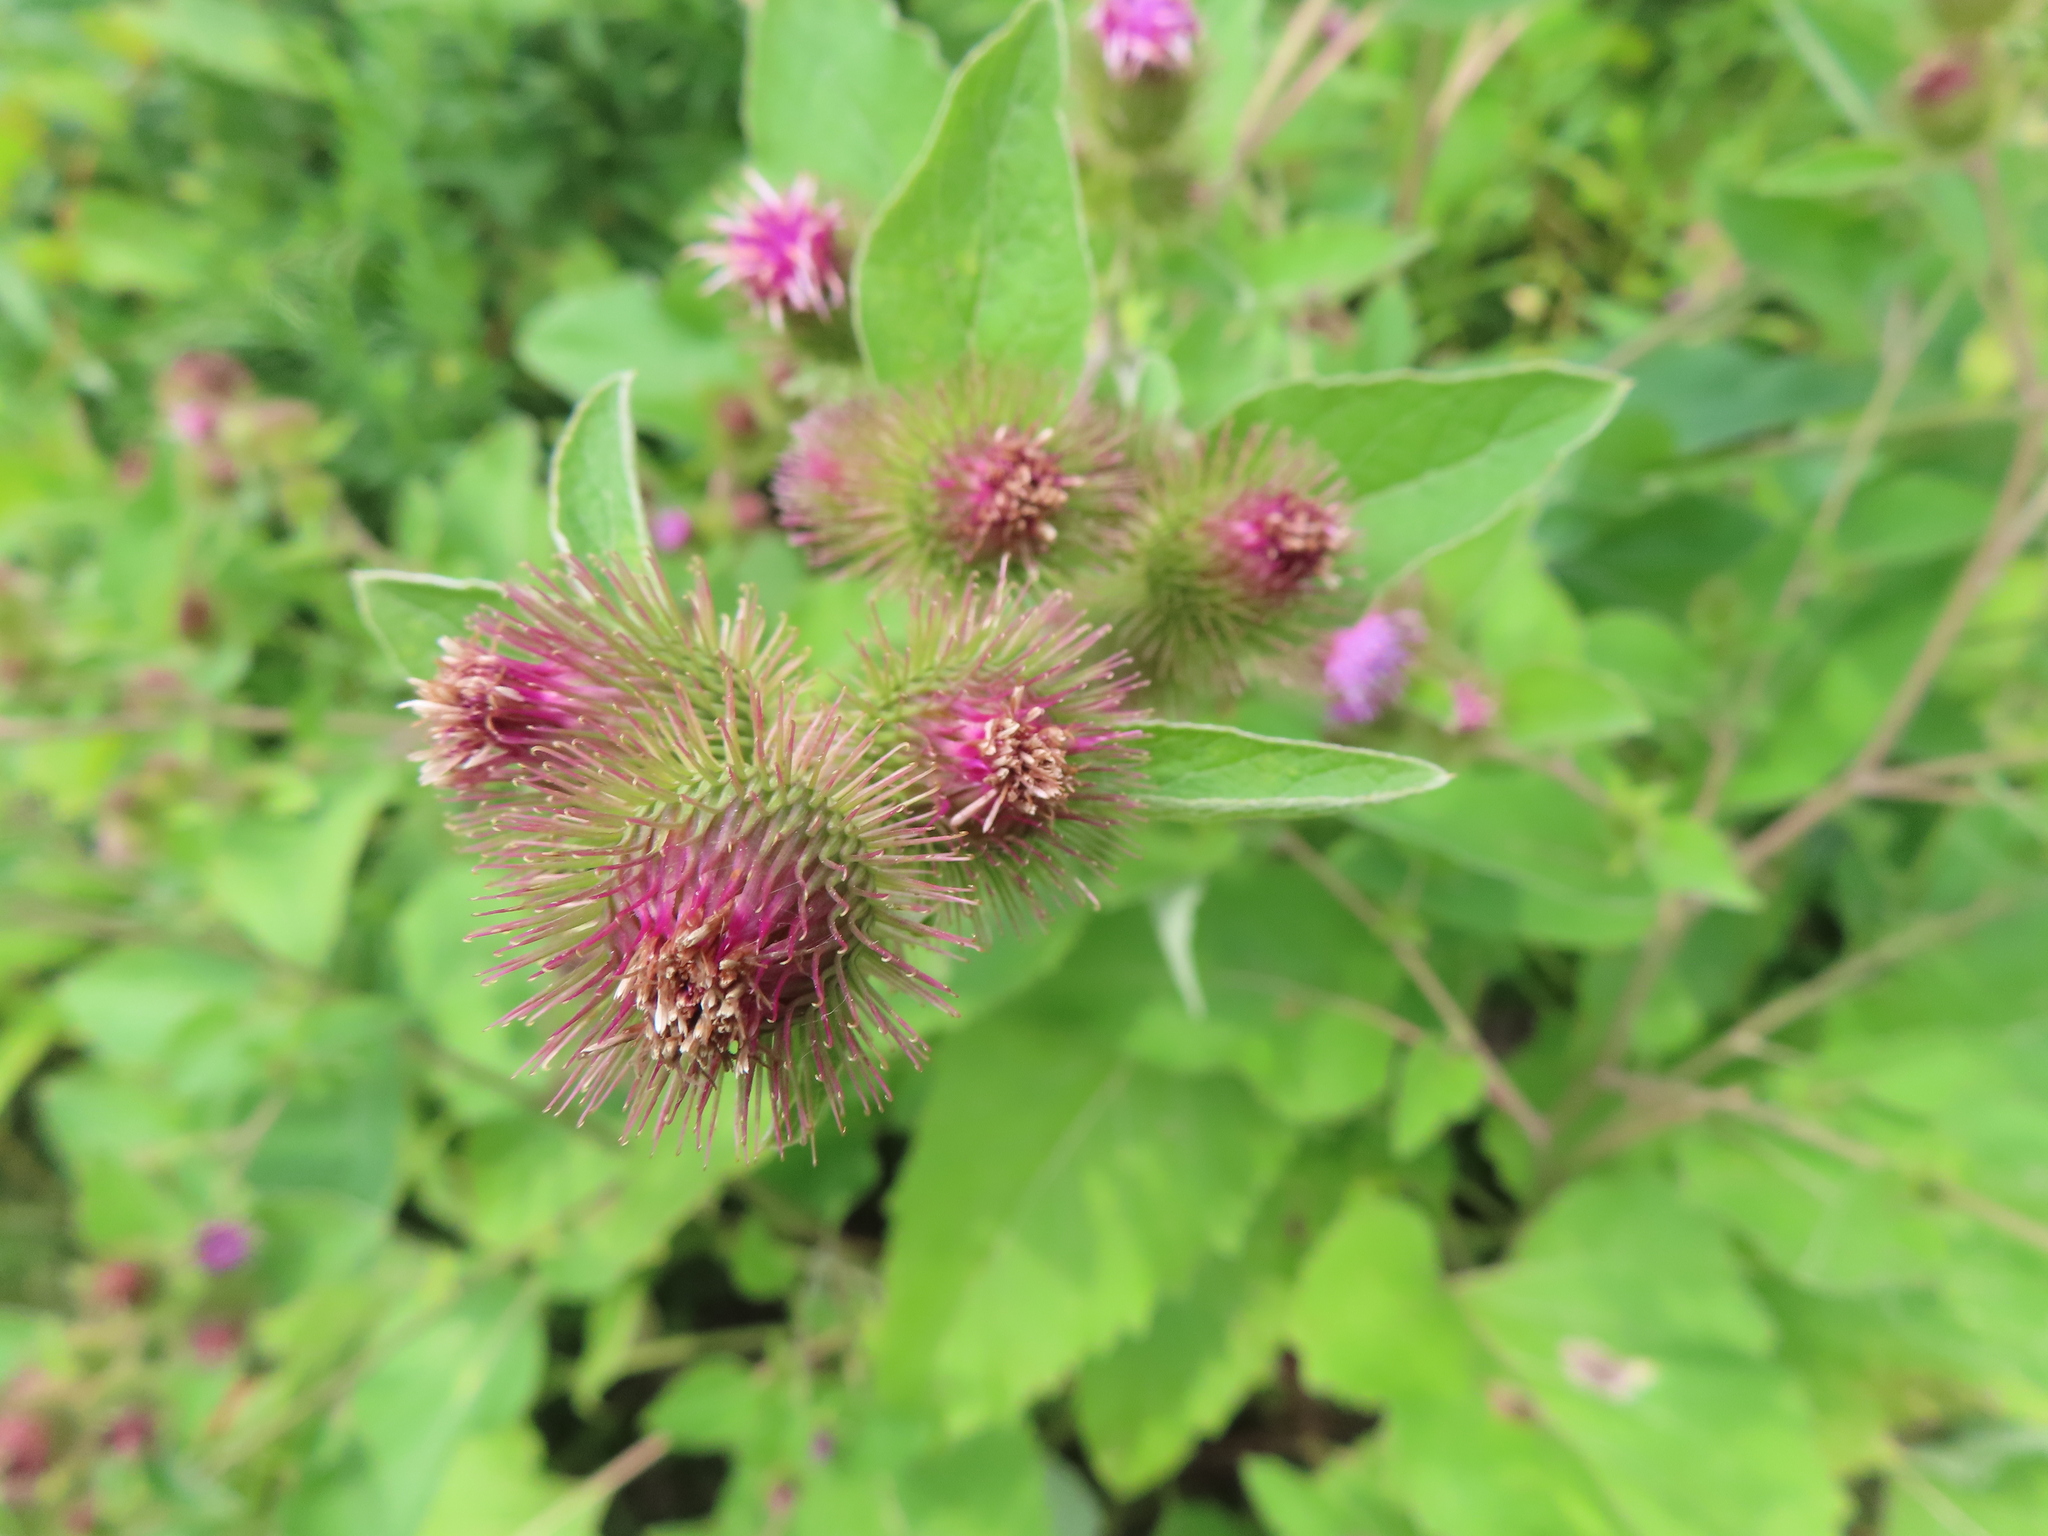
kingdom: Plantae
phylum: Tracheophyta
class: Magnoliopsida
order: Asterales
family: Asteraceae
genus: Arctium
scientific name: Arctium minus
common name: Lesser burdock
